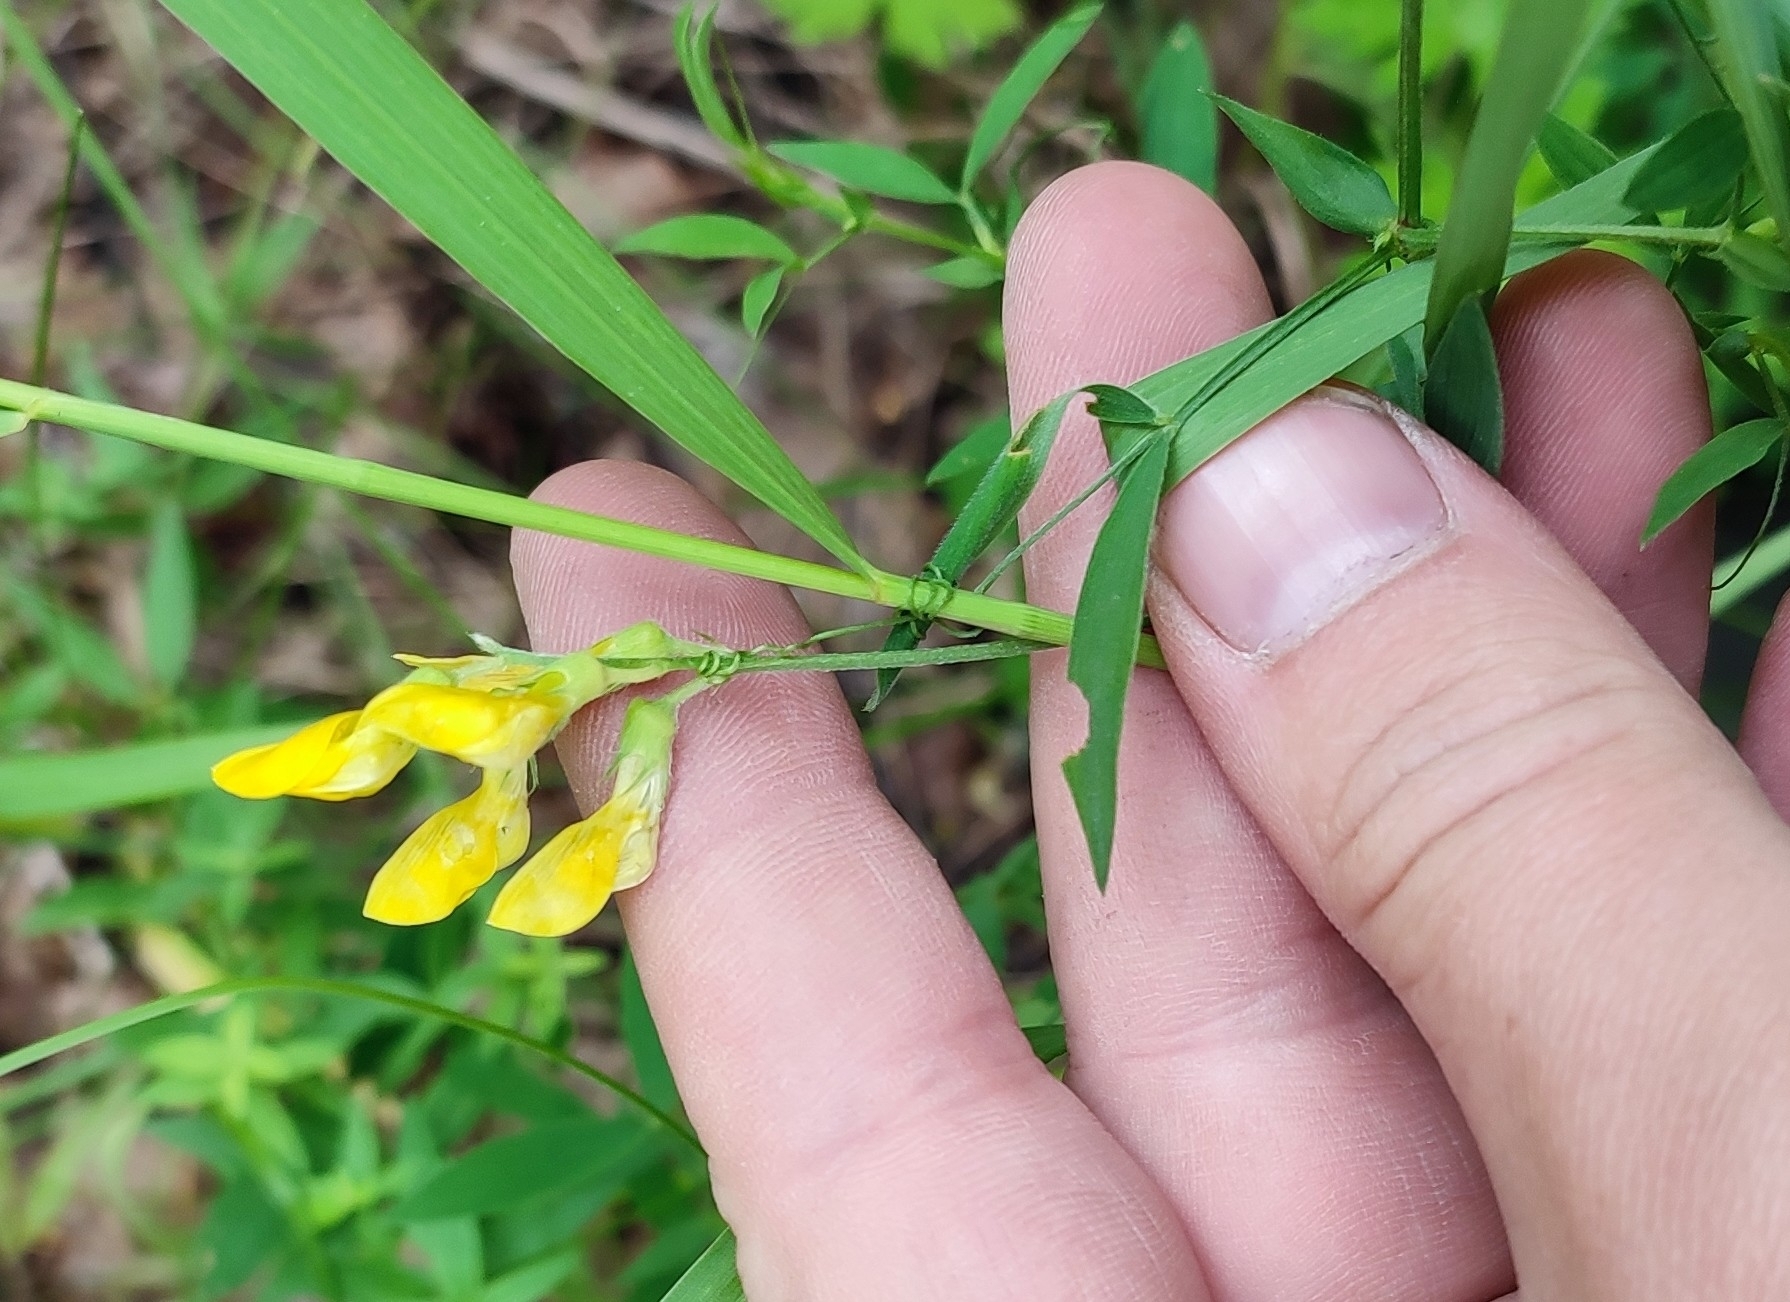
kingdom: Plantae
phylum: Tracheophyta
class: Magnoliopsida
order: Fabales
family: Fabaceae
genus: Lathyrus
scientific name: Lathyrus pratensis
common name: Meadow vetchling
